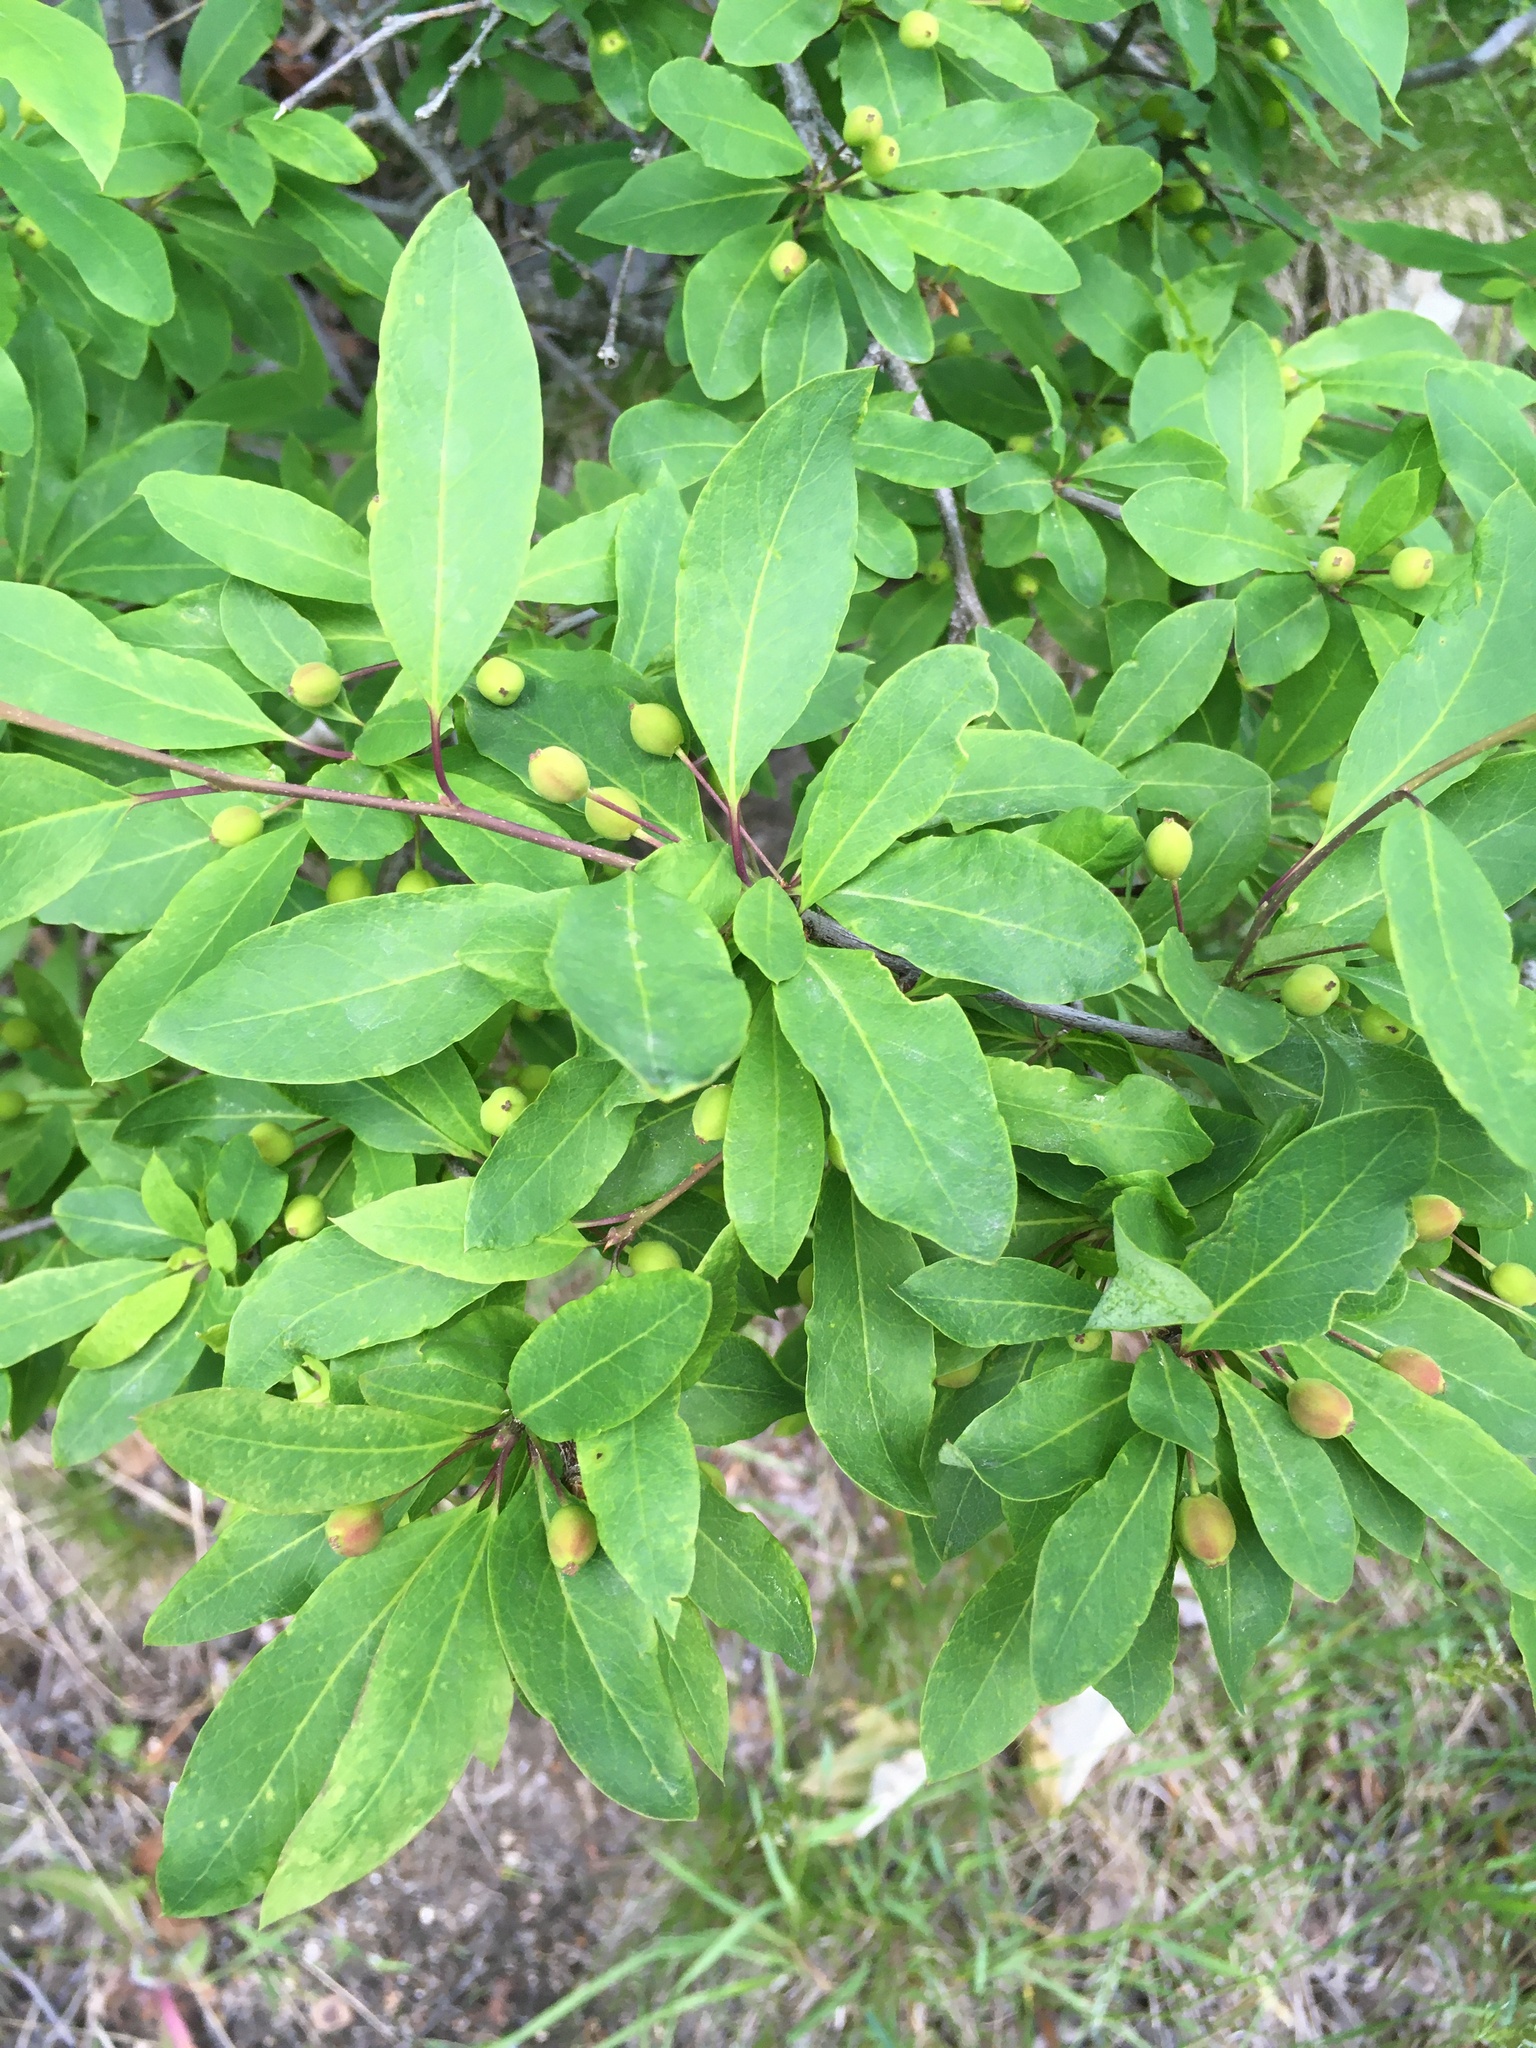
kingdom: Plantae
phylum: Tracheophyta
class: Magnoliopsida
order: Aquifoliales
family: Aquifoliaceae
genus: Ilex
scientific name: Ilex mucronata
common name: Catberry
